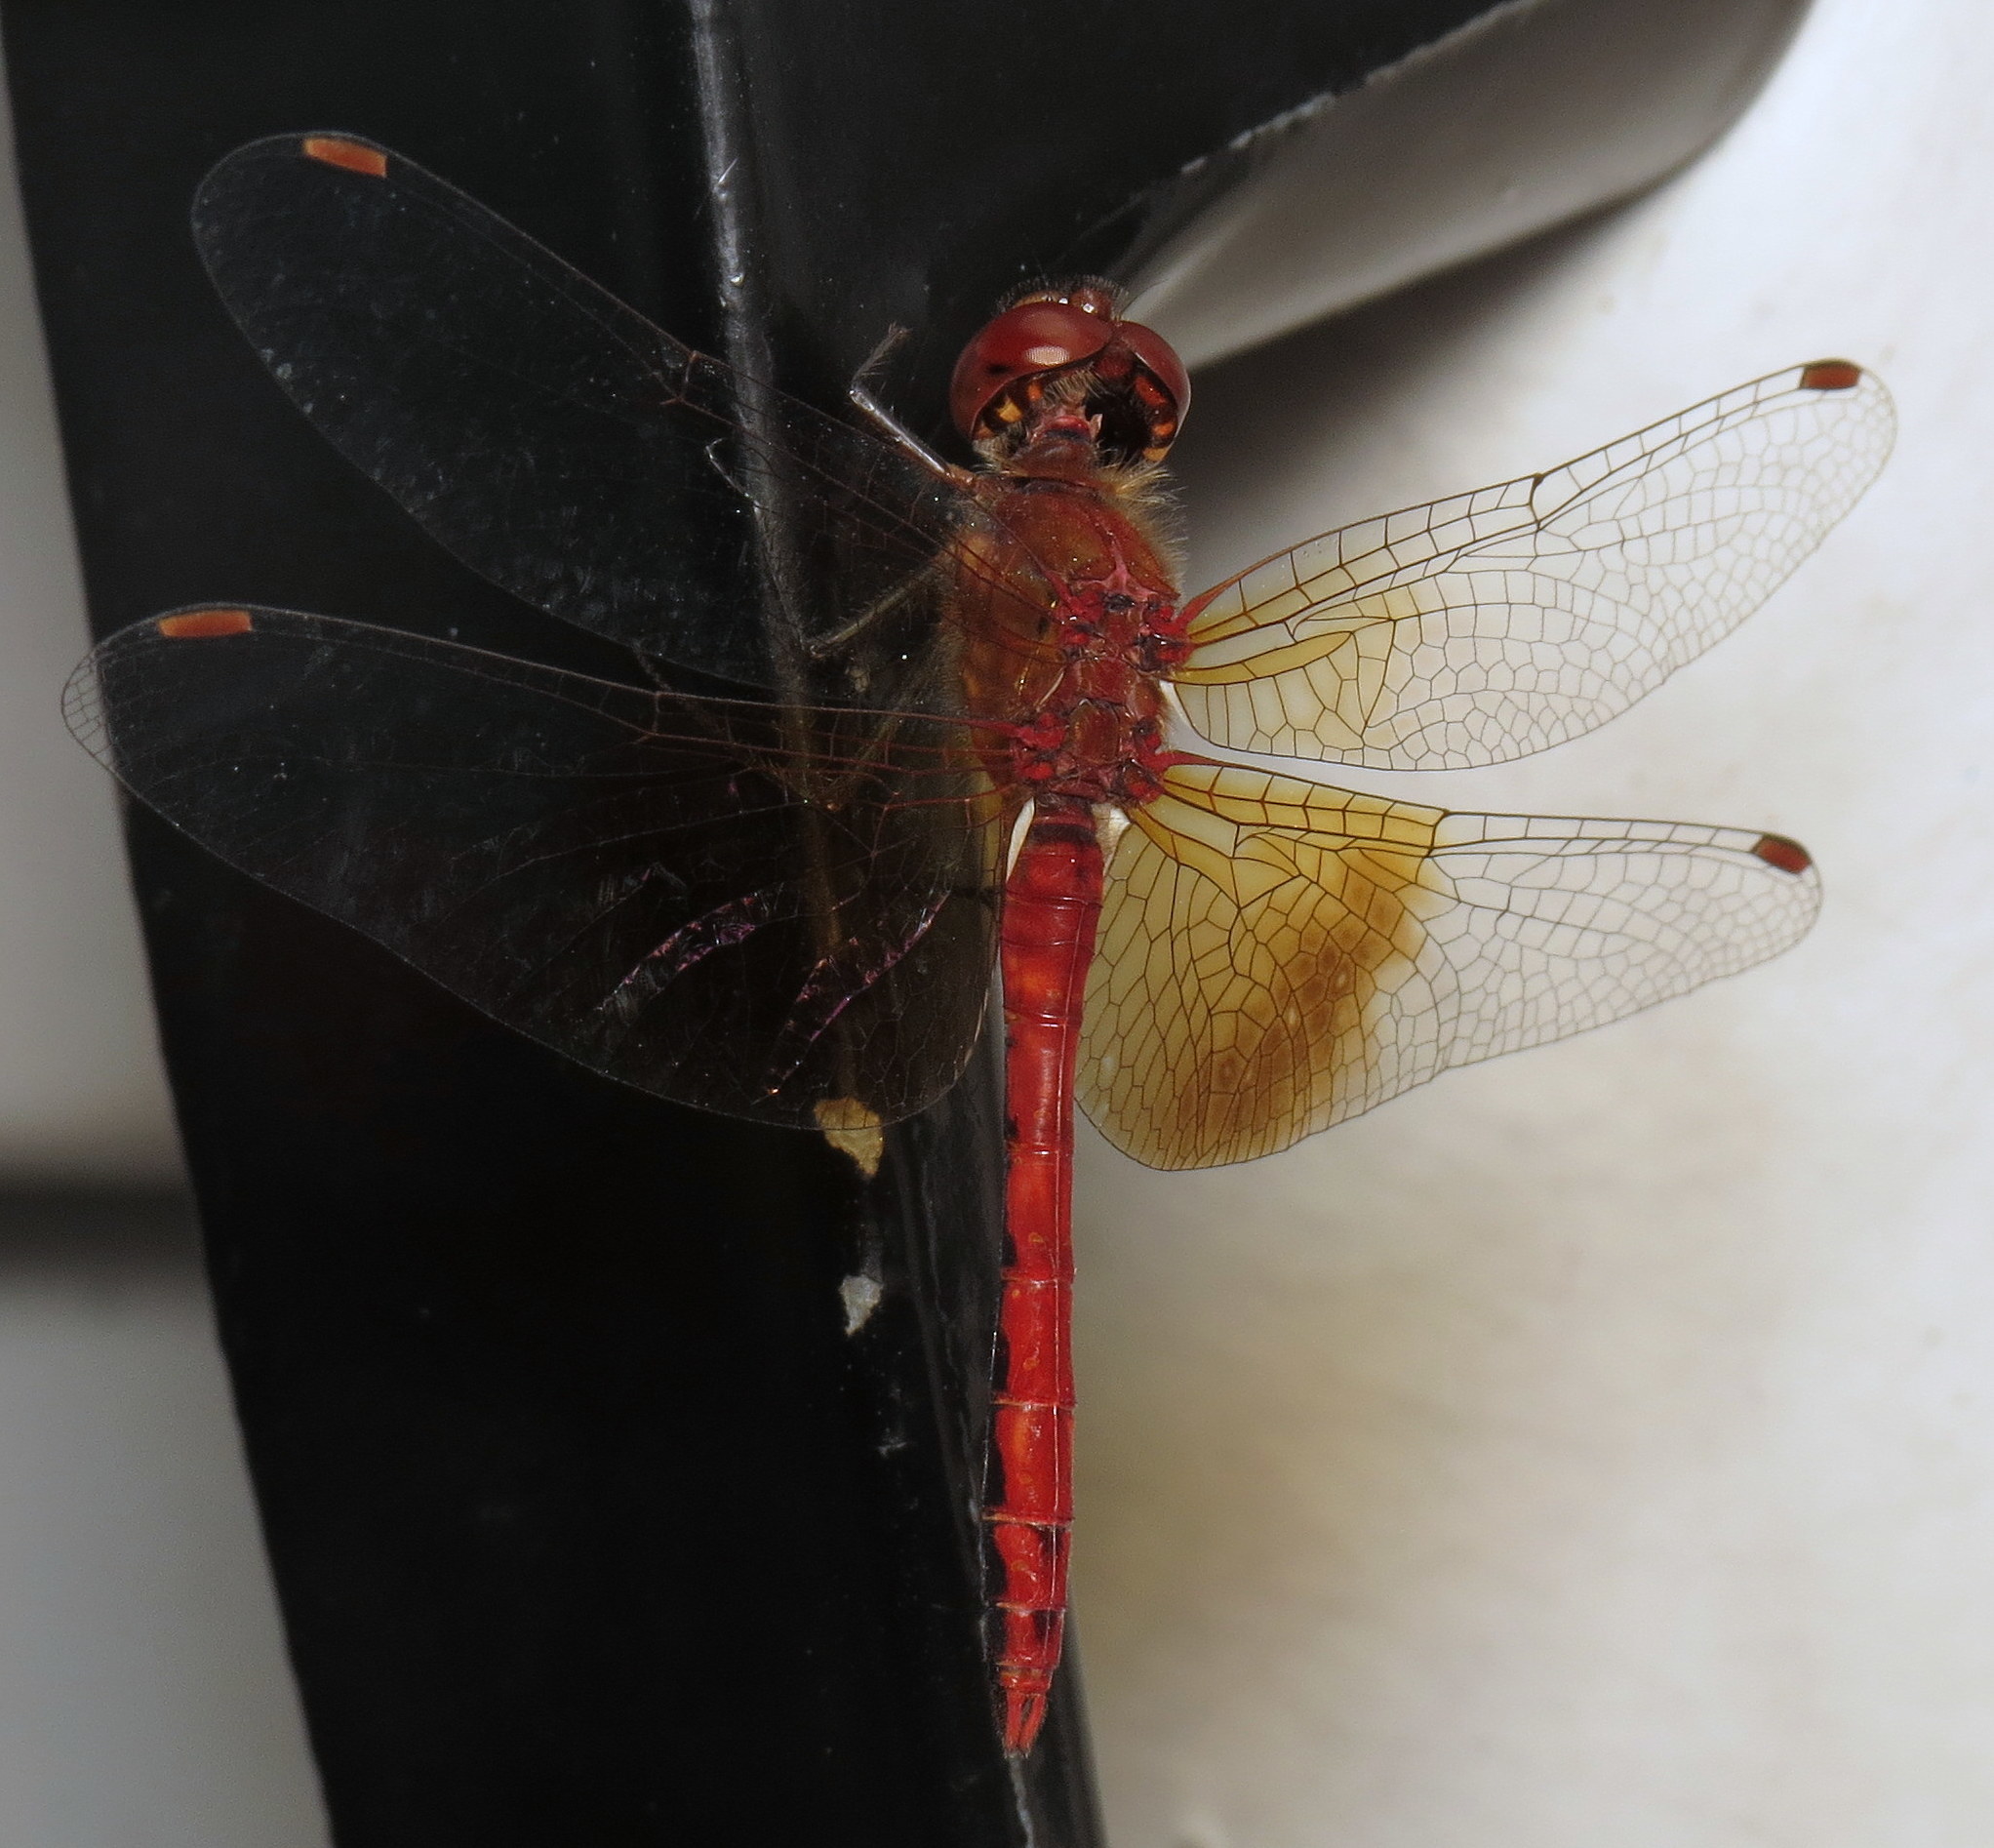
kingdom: Animalia
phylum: Arthropoda
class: Insecta
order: Odonata
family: Libellulidae
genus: Sympetrum
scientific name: Sympetrum semicinctum
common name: Band-winged meadowhawk
